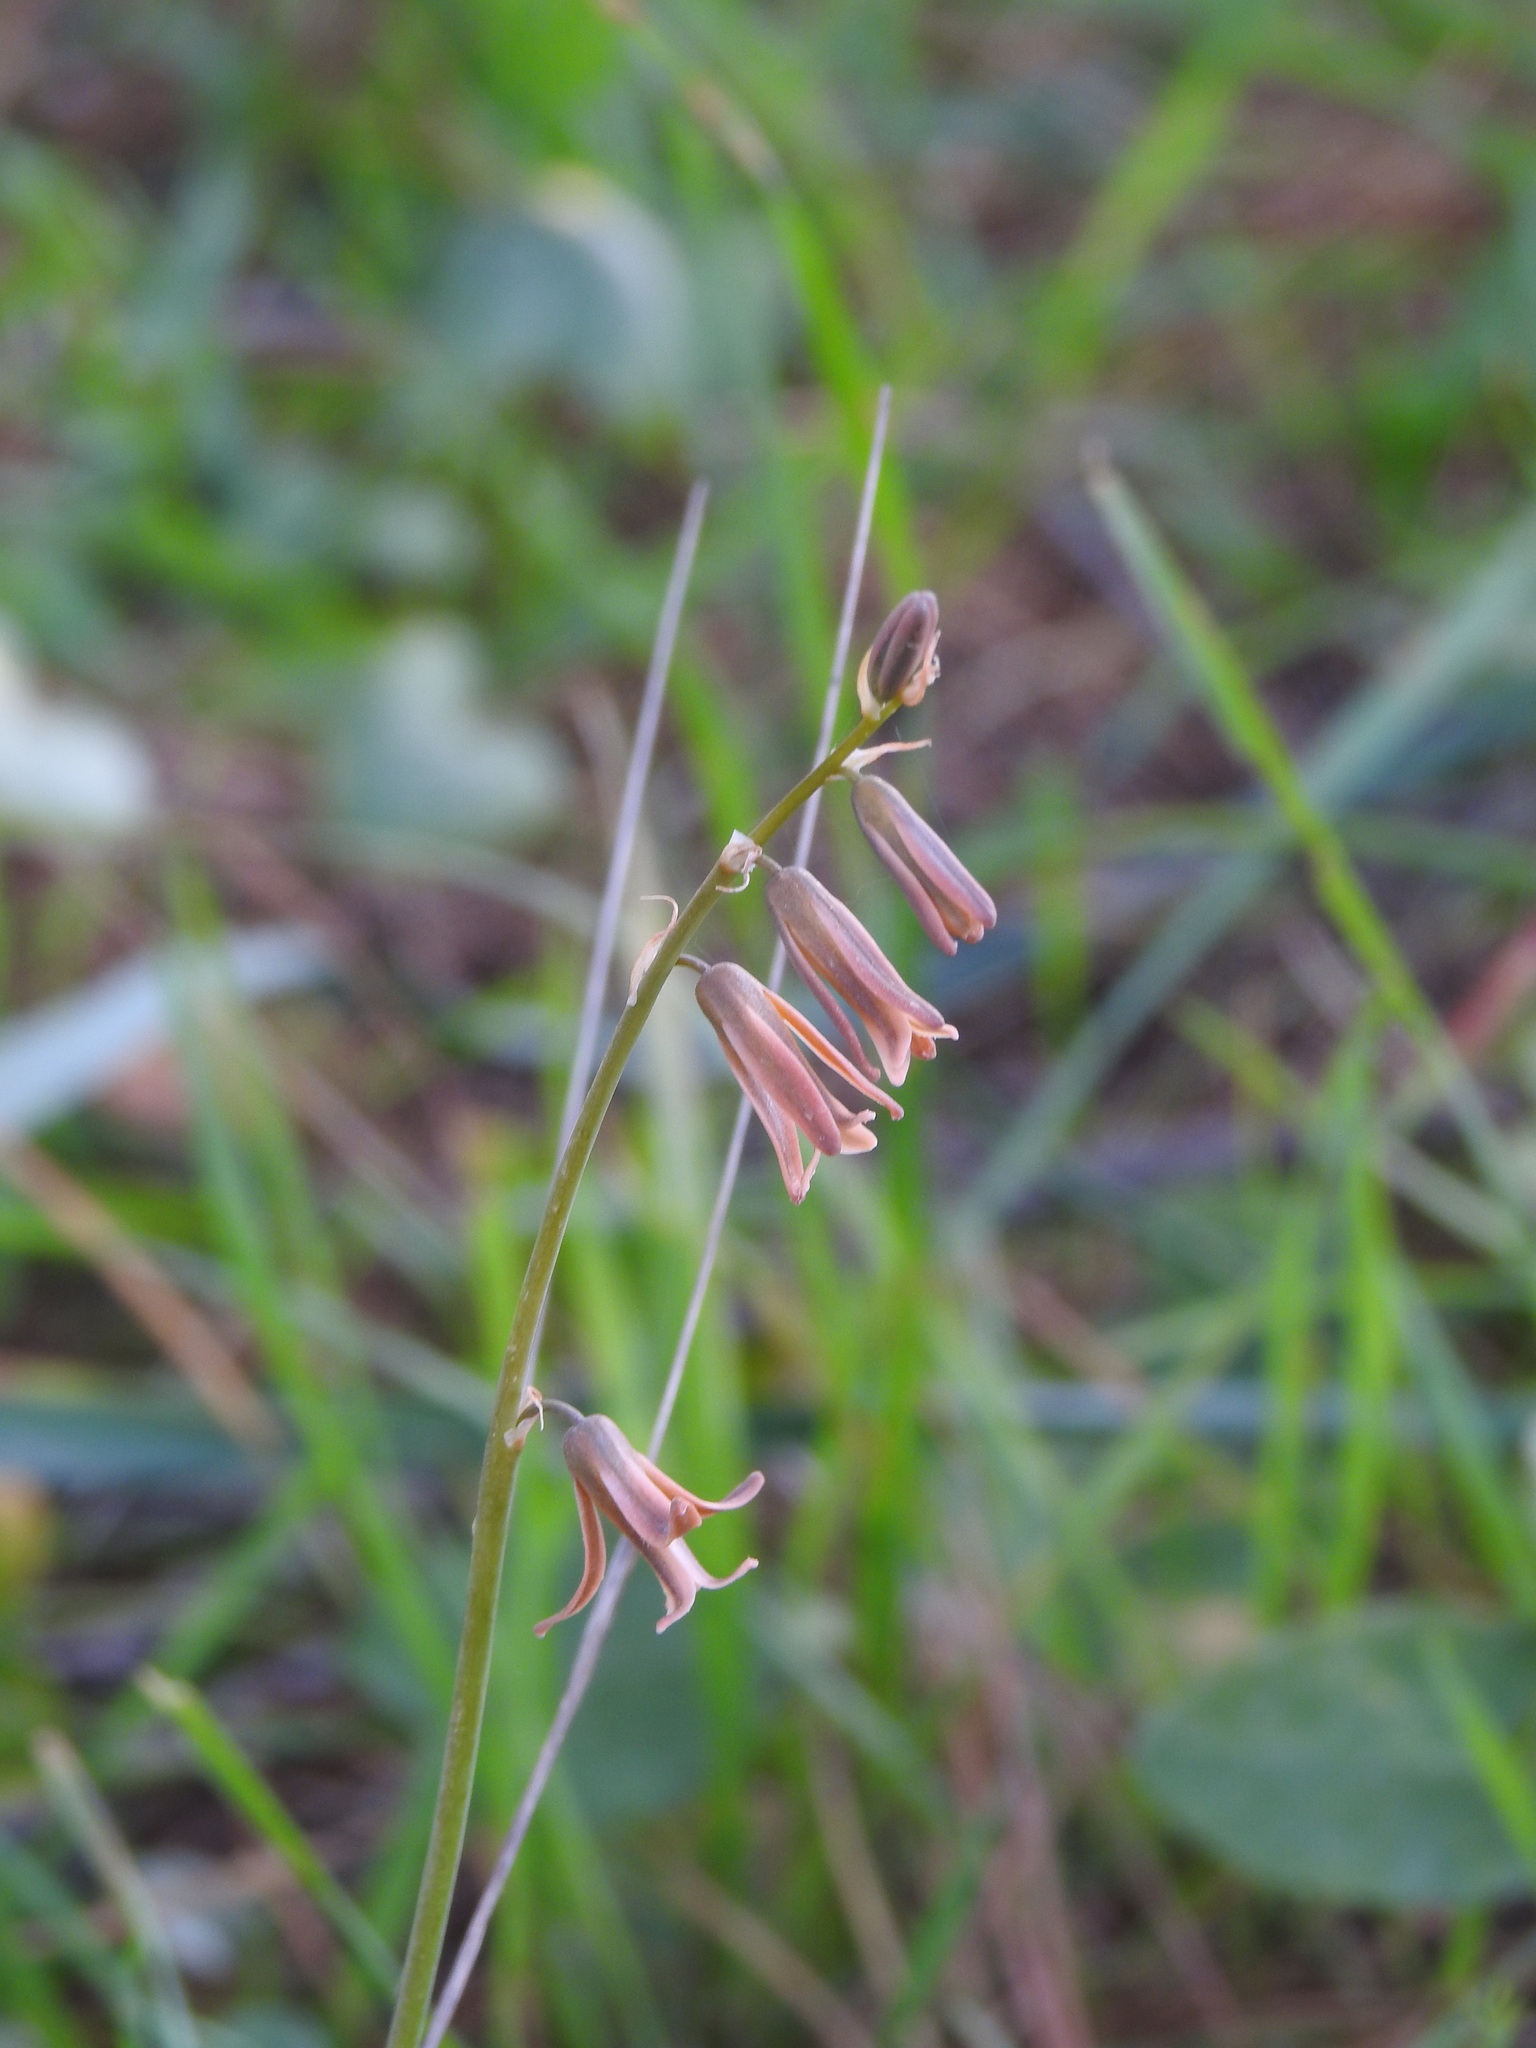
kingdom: Plantae
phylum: Tracheophyta
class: Liliopsida
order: Asparagales
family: Asparagaceae
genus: Dipcadi
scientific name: Dipcadi serotinum
